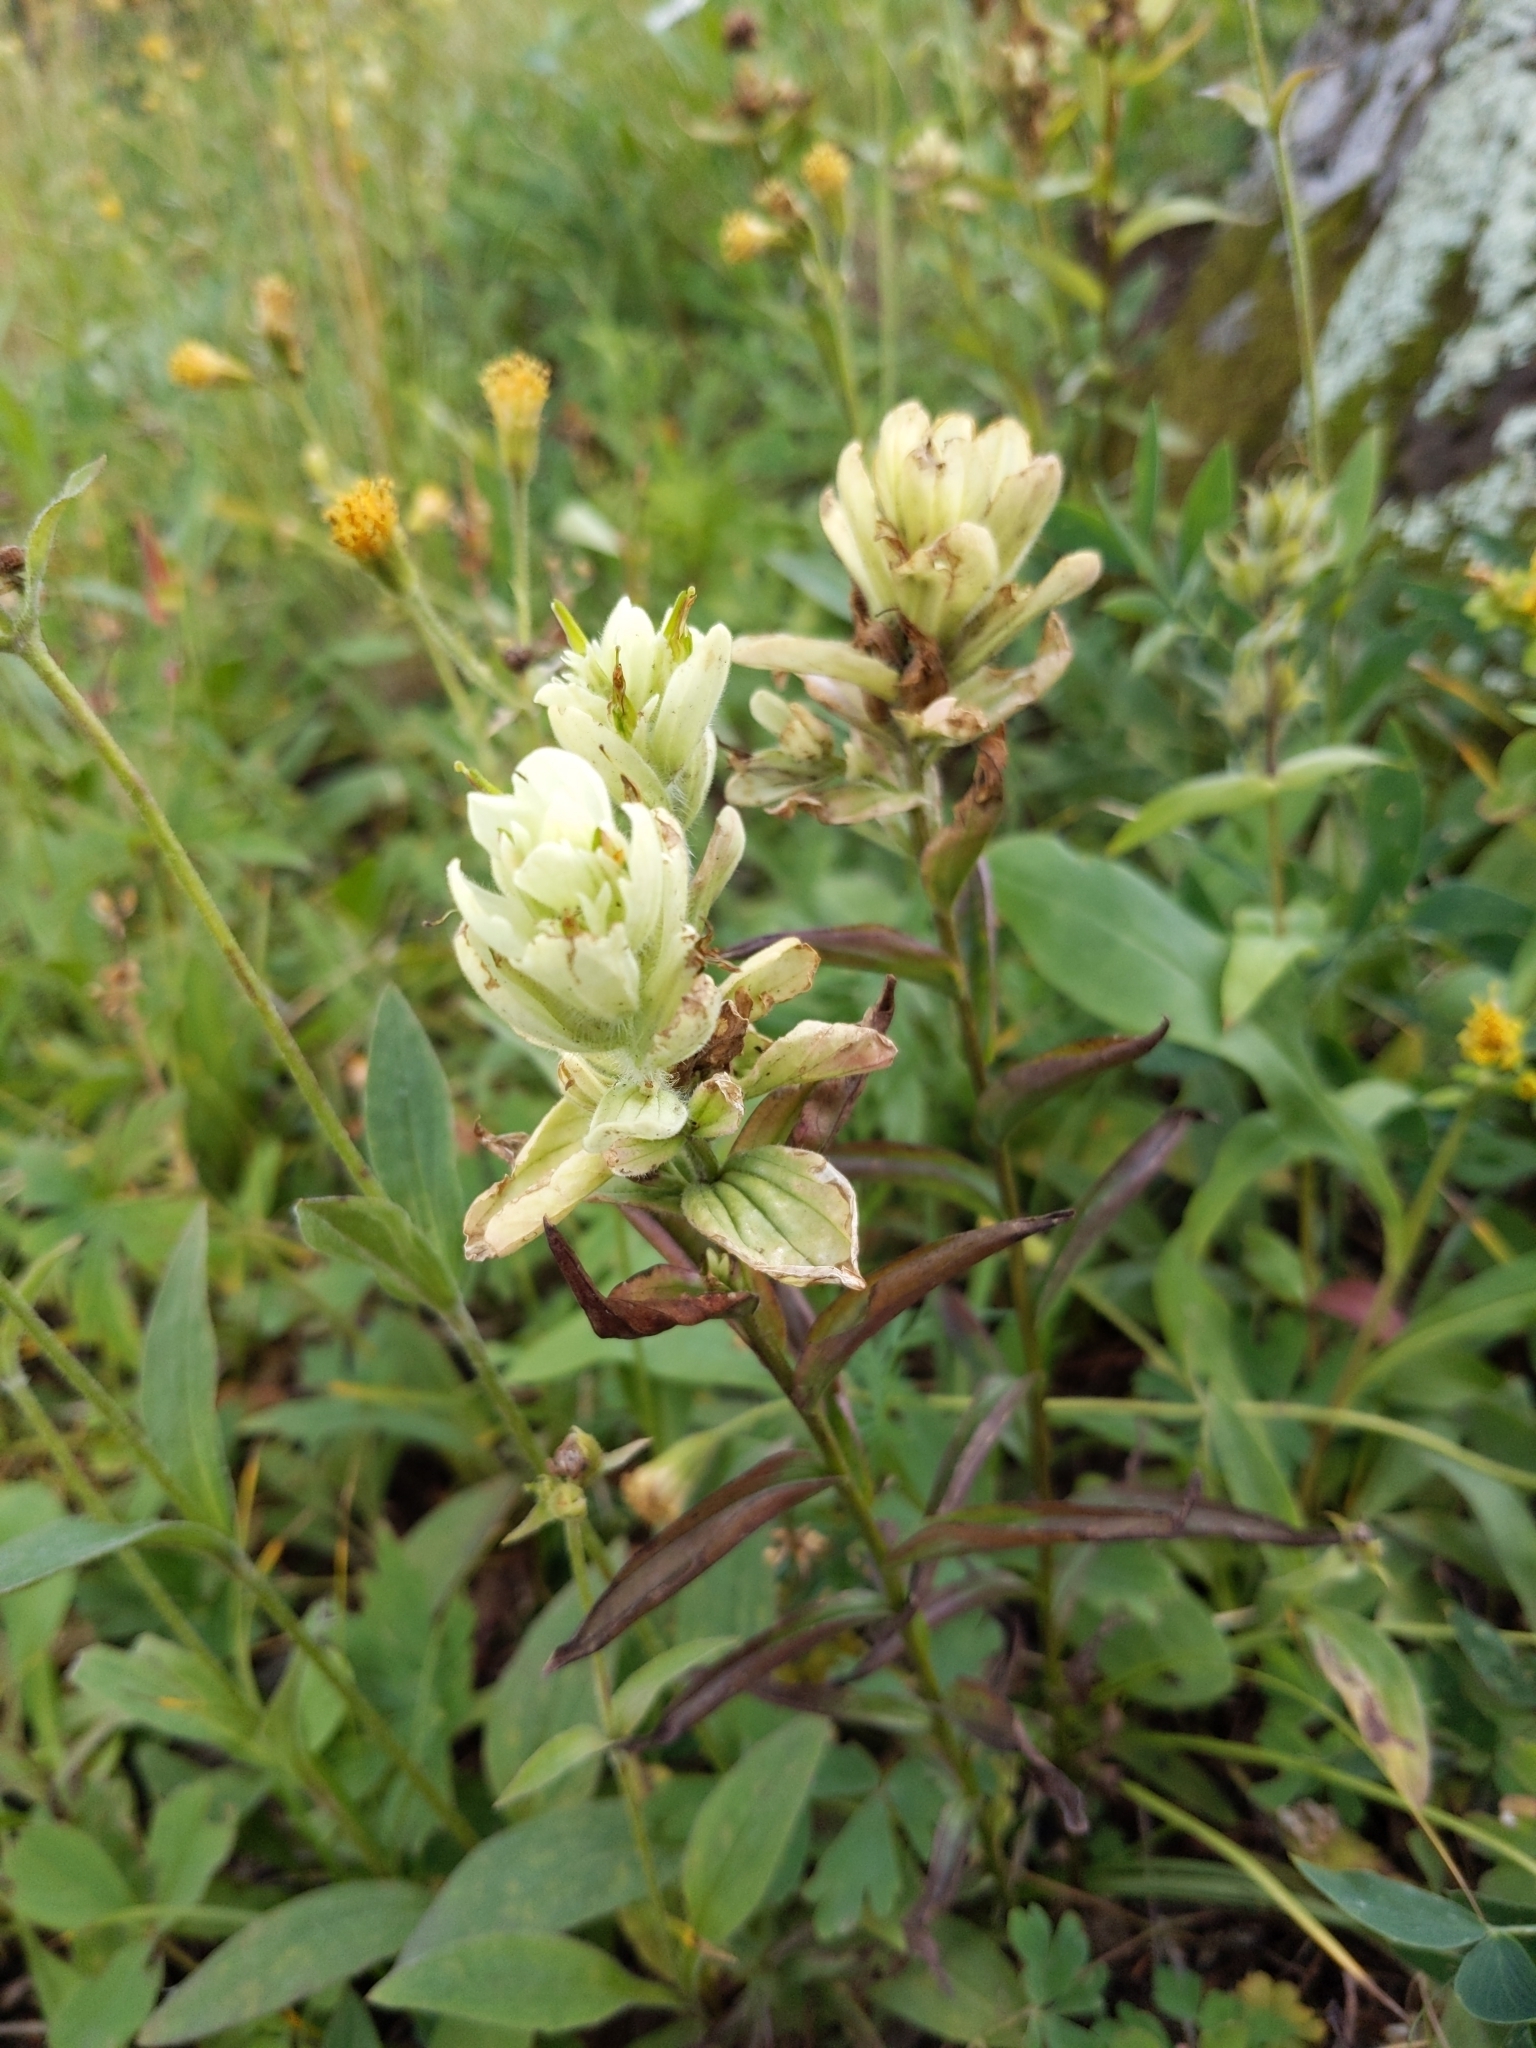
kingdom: Plantae
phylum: Tracheophyta
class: Magnoliopsida
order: Lamiales
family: Orobanchaceae
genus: Castilleja
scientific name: Castilleja septentrionalis
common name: Northeastern paintbrush
